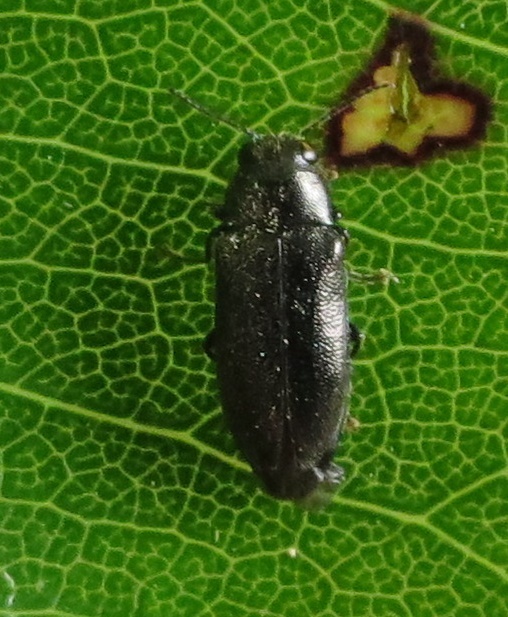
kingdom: Animalia
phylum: Arthropoda
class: Insecta
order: Coleoptera
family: Buprestidae
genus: Maoraxia
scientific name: Maoraxia eremita
